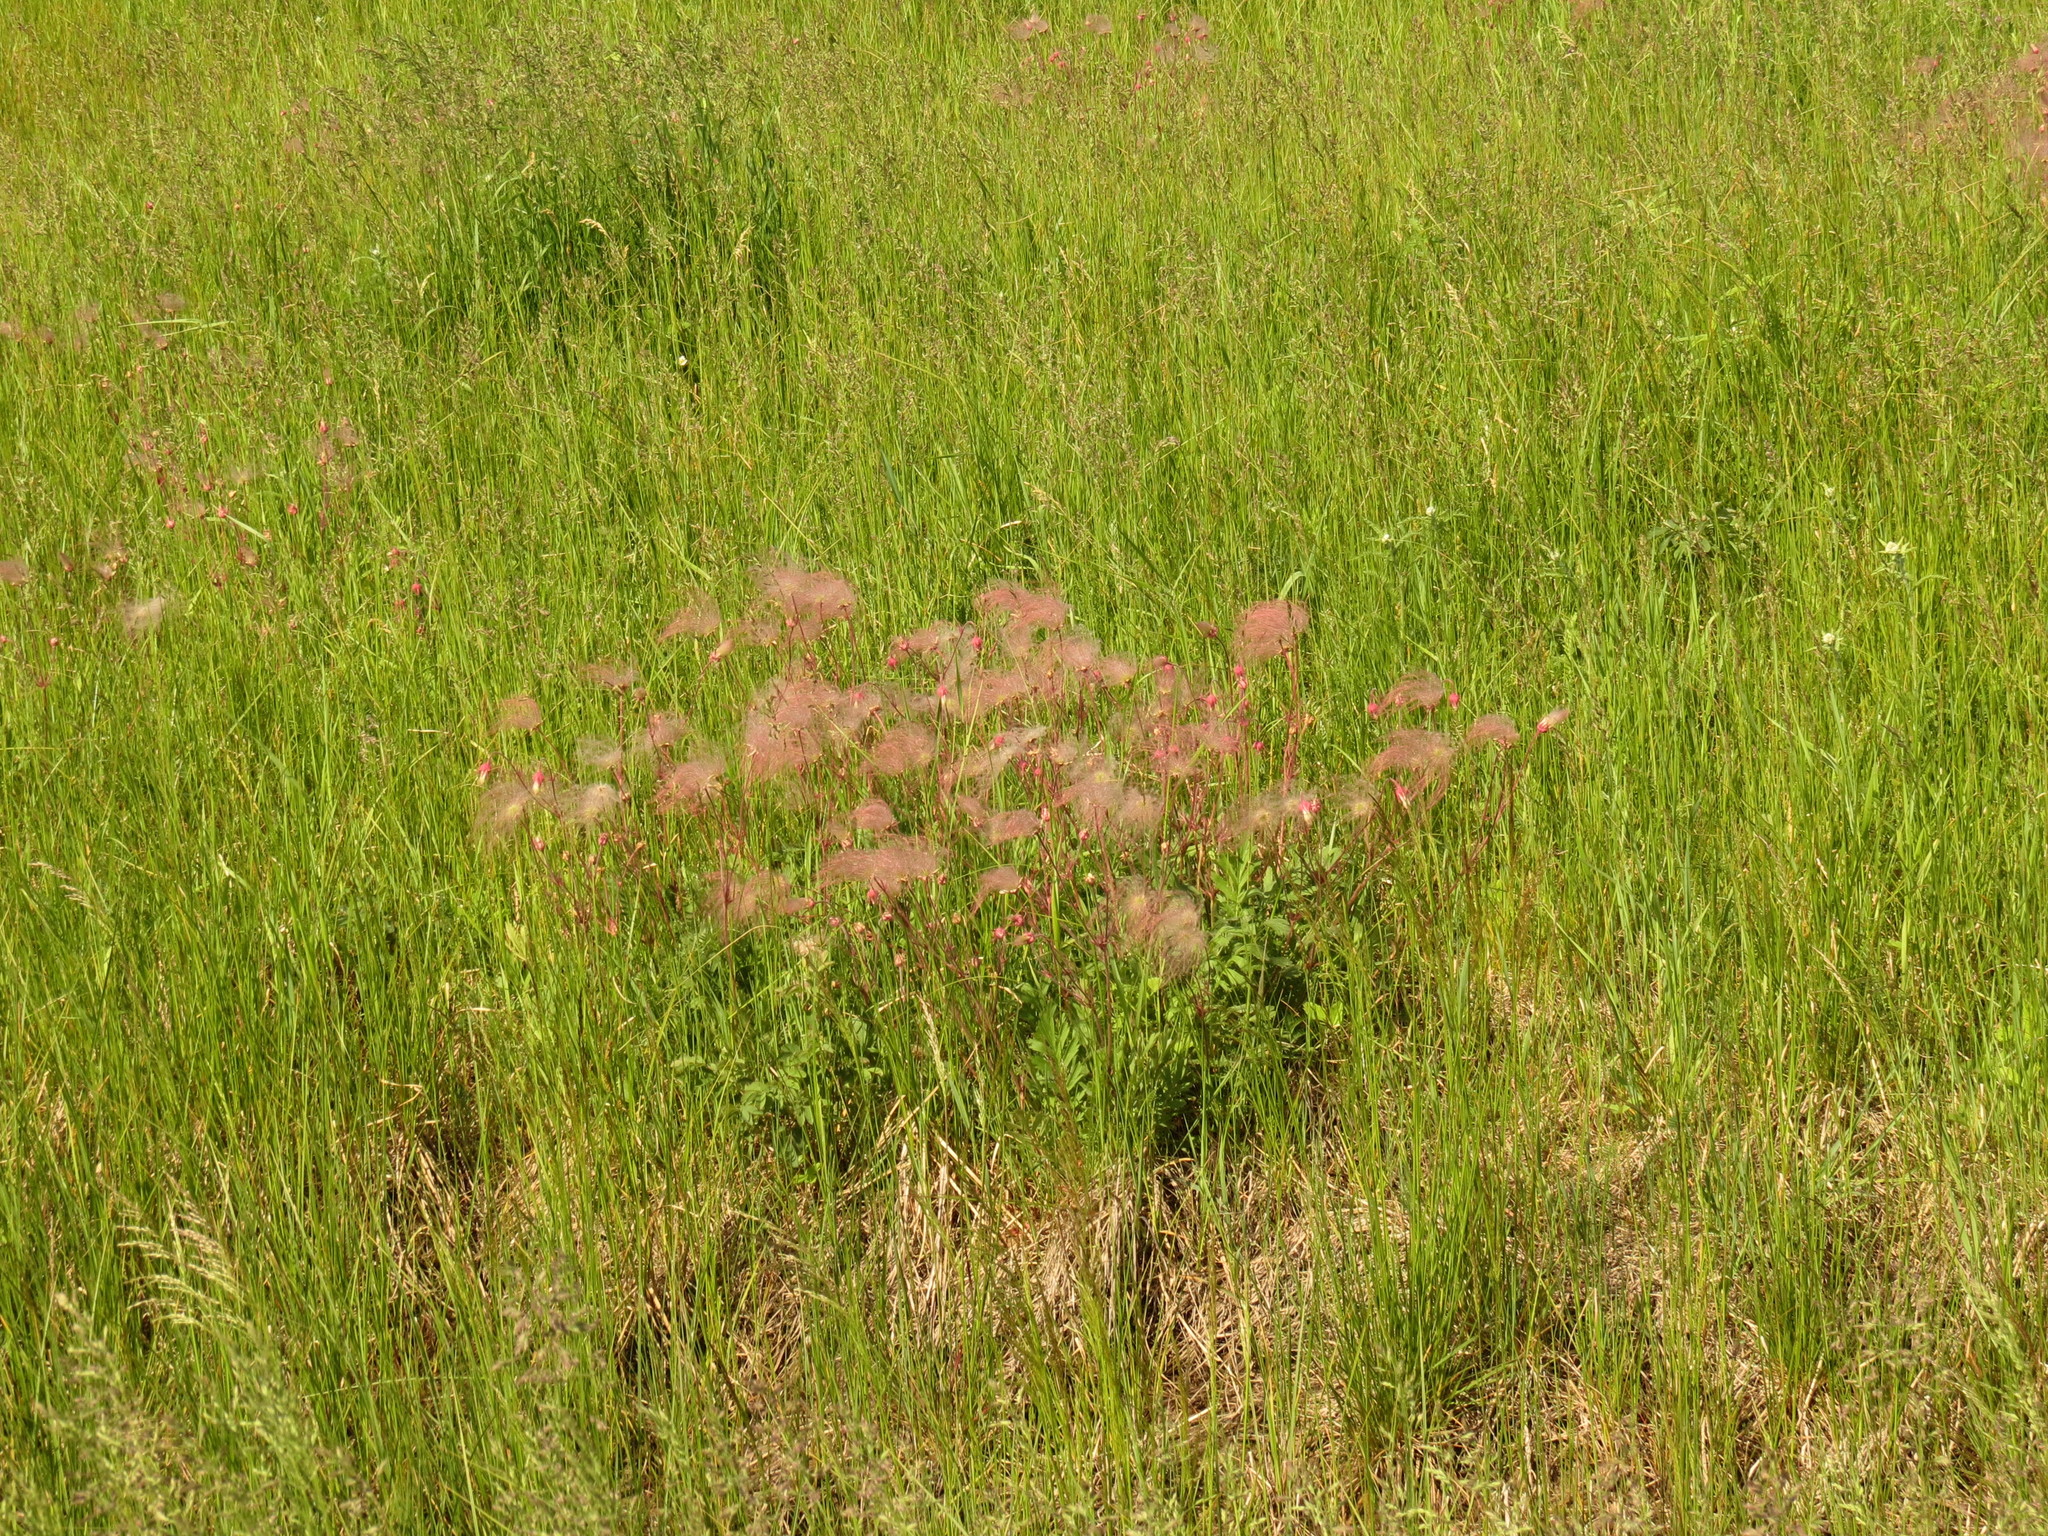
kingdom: Plantae
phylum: Tracheophyta
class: Magnoliopsida
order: Rosales
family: Rosaceae
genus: Geum
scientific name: Geum triflorum
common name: Old man's whiskers
